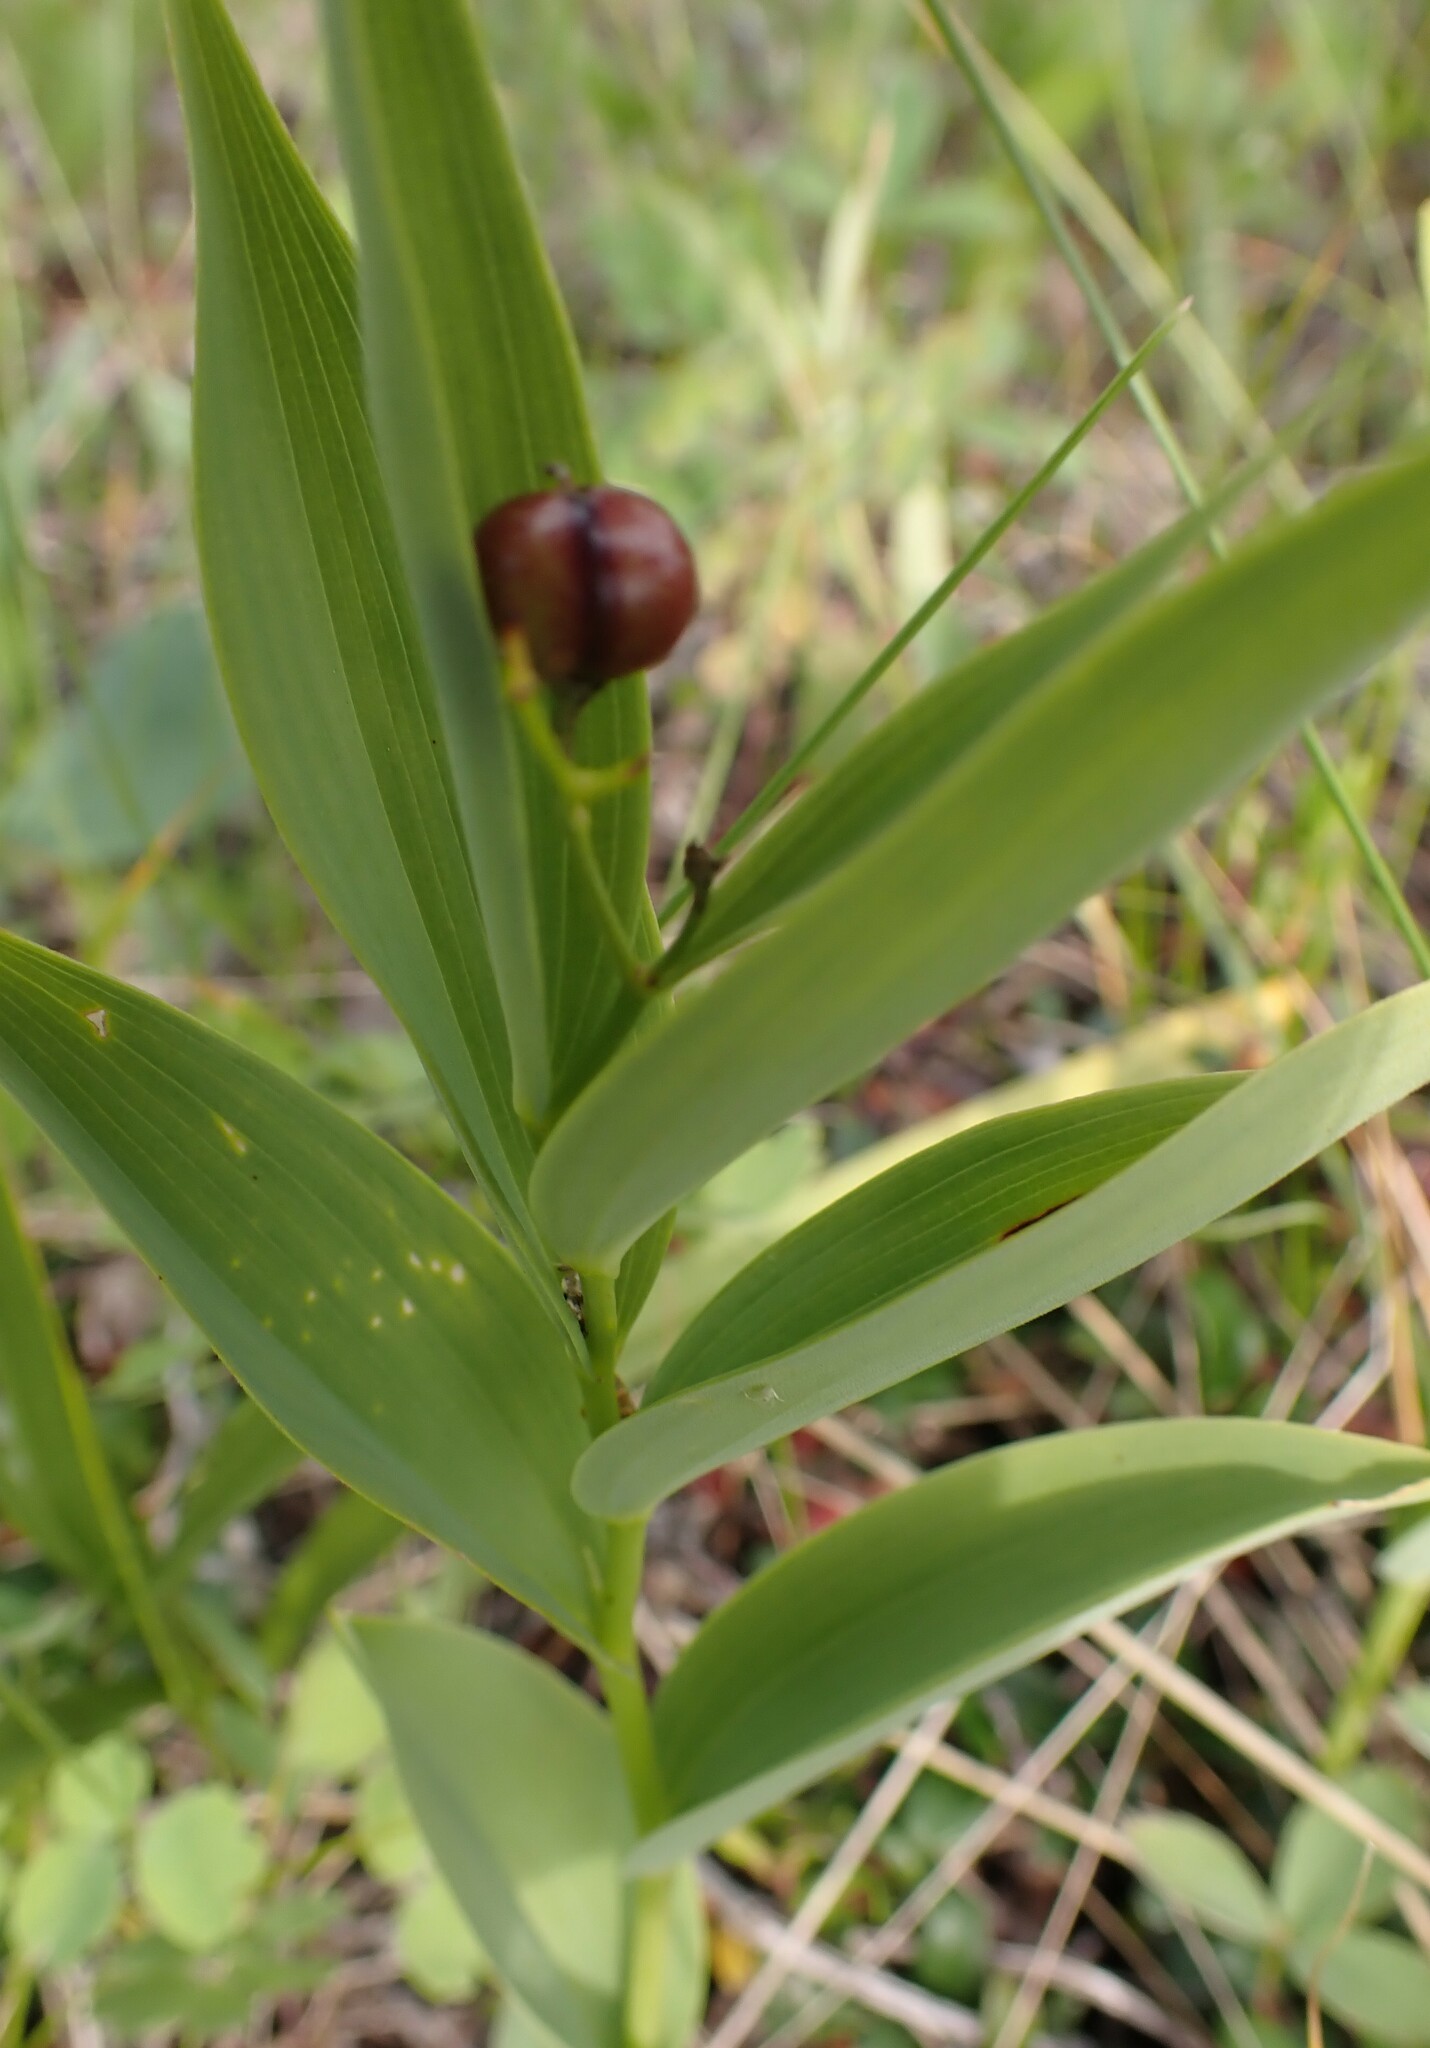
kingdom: Plantae
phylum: Tracheophyta
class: Liliopsida
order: Asparagales
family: Asparagaceae
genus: Maianthemum
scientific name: Maianthemum stellatum
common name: Little false solomon's seal
